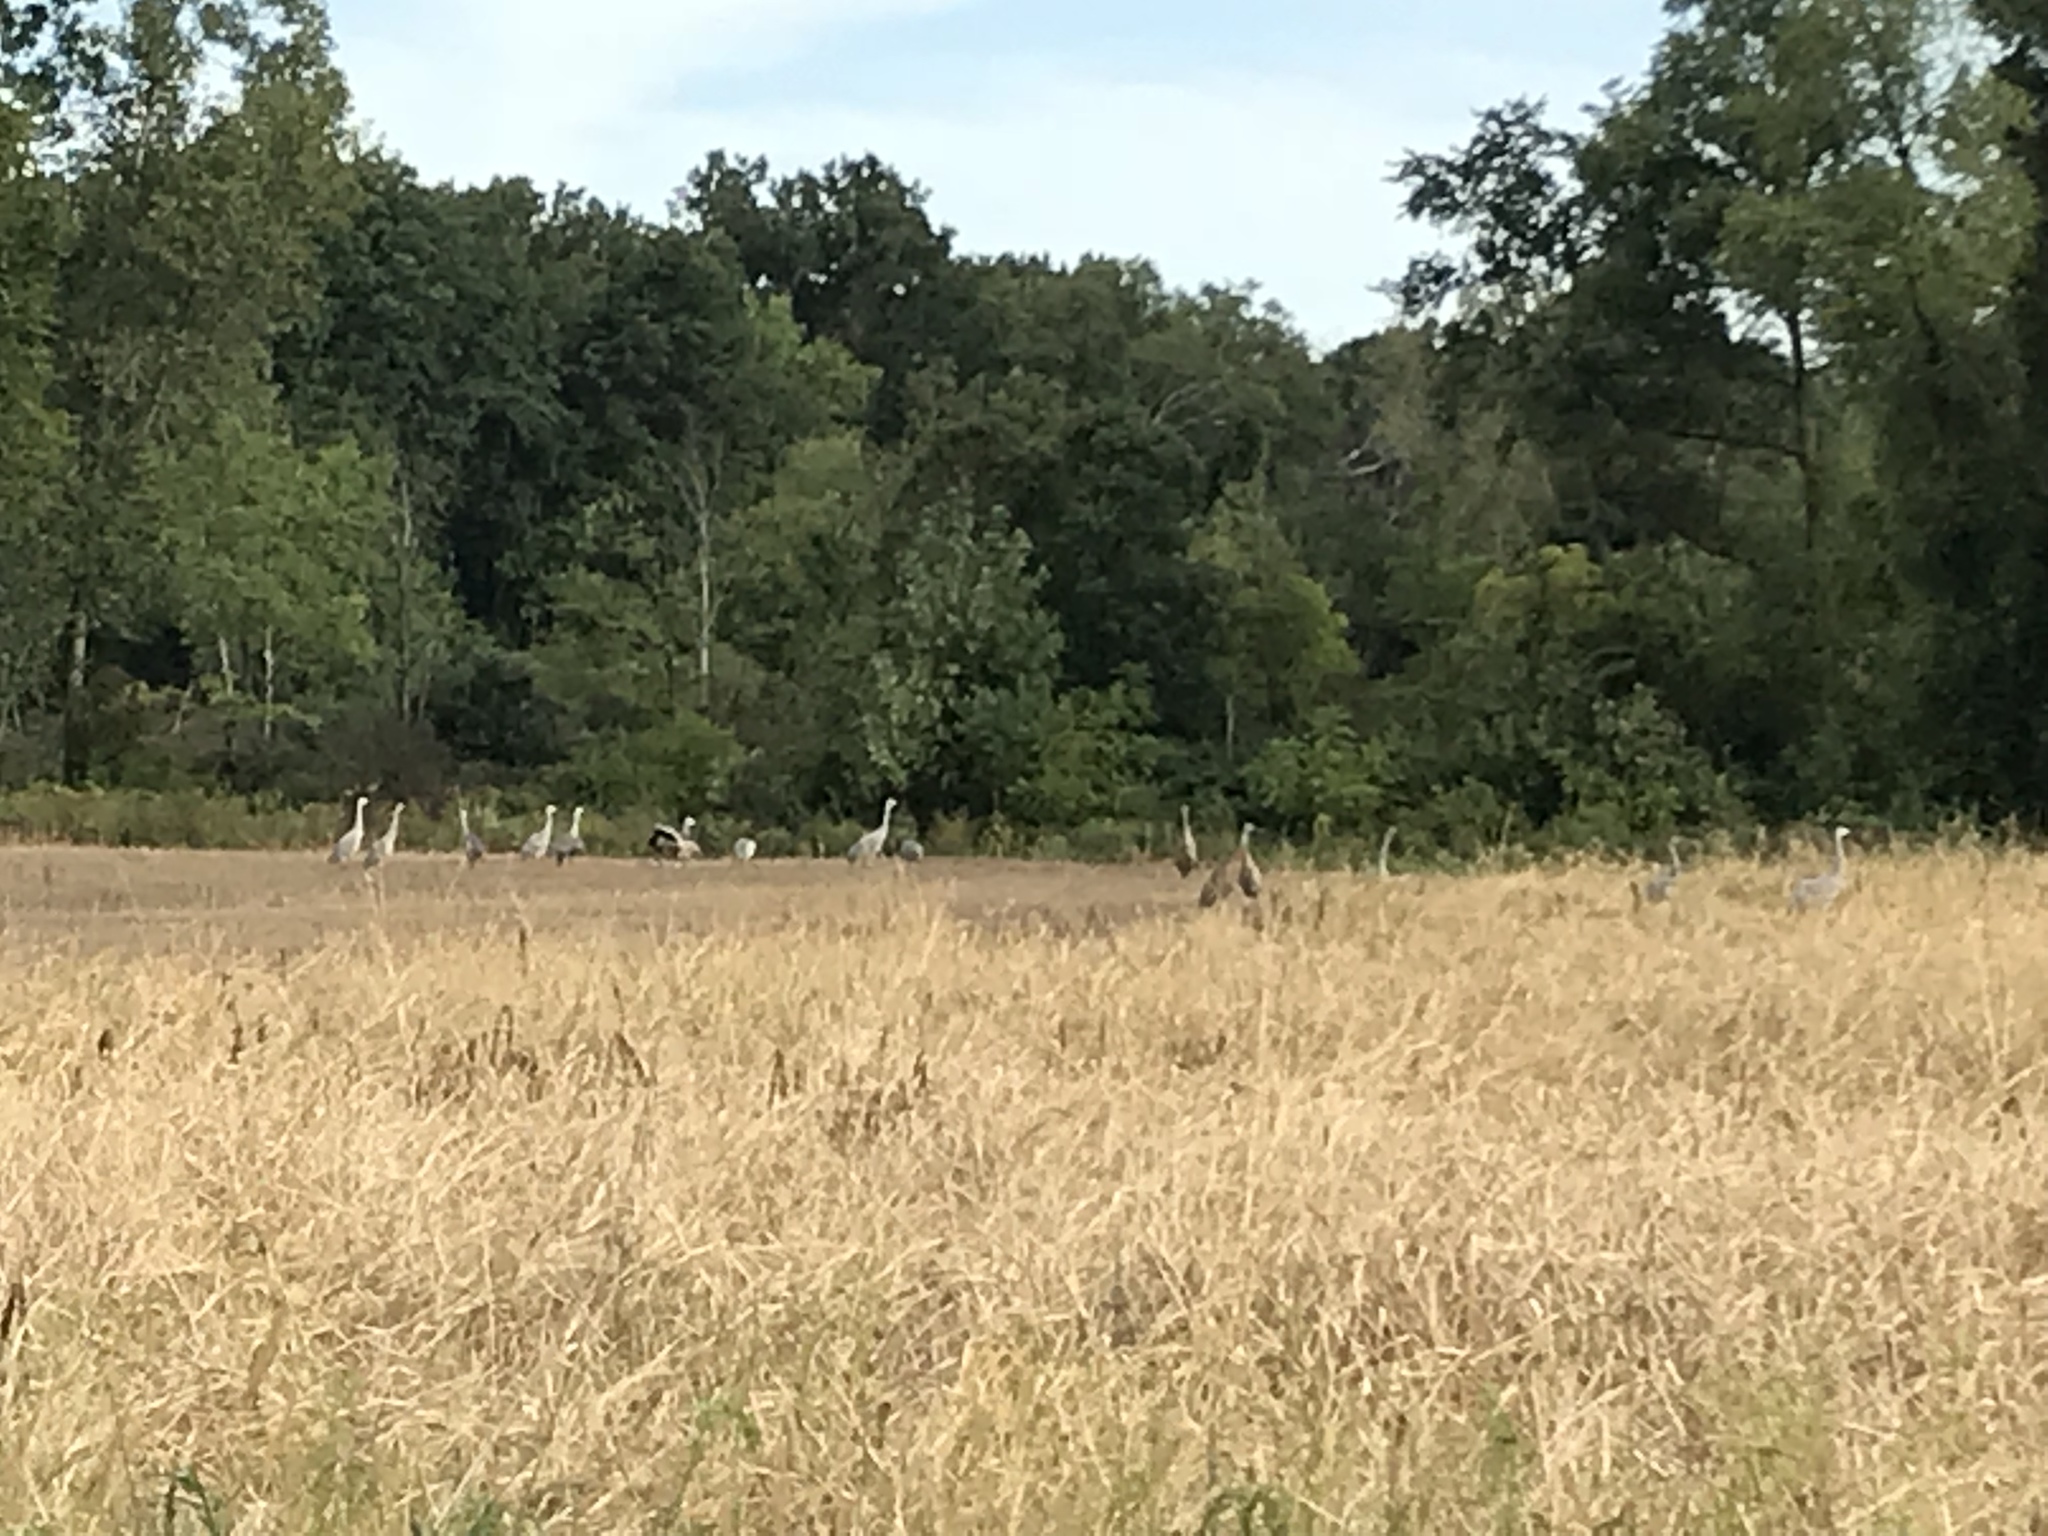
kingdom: Animalia
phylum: Chordata
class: Aves
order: Gruiformes
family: Gruidae
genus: Grus
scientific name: Grus canadensis
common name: Sandhill crane
